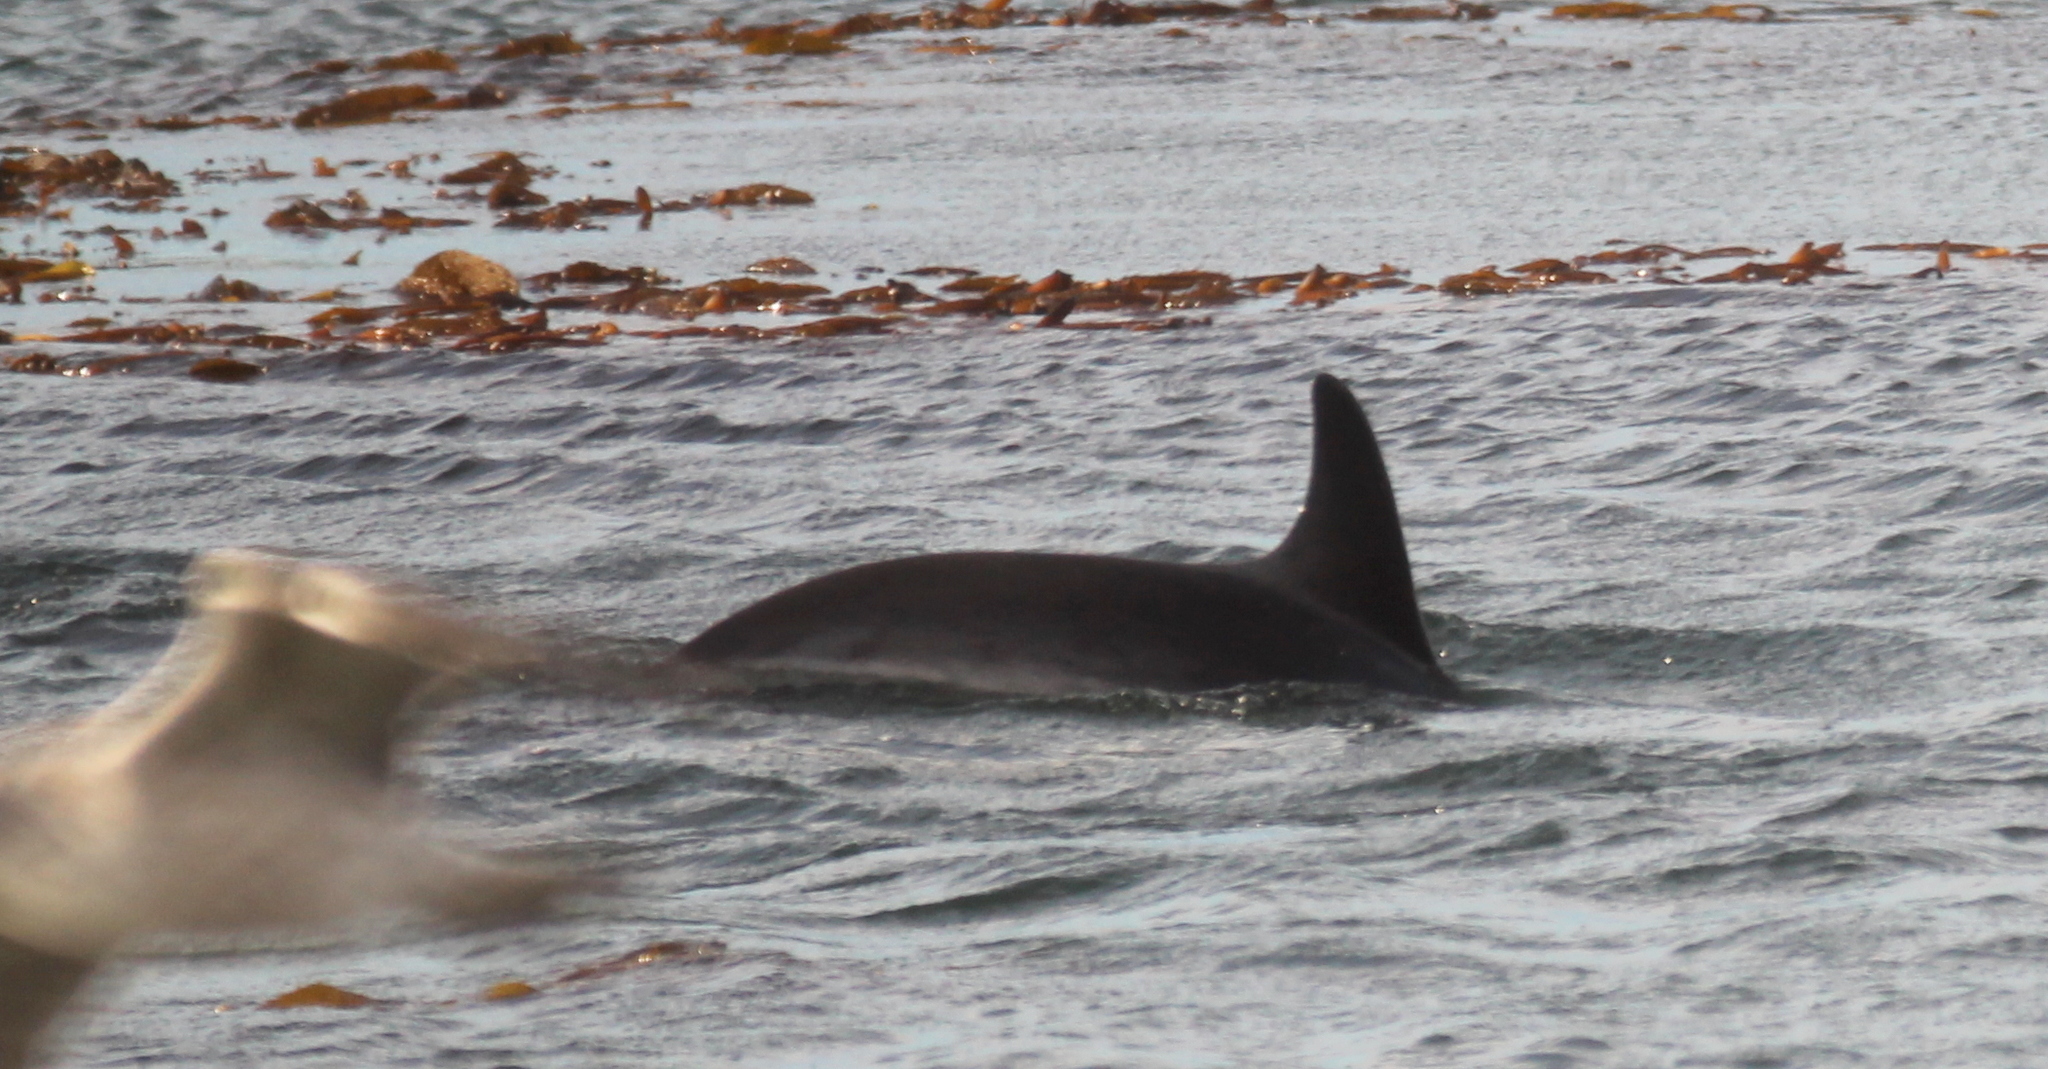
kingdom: Animalia
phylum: Chordata
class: Mammalia
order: Cetacea
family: Delphinidae
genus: Lagenorhynchus
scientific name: Lagenorhynchus australis
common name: Peale's dolphin
